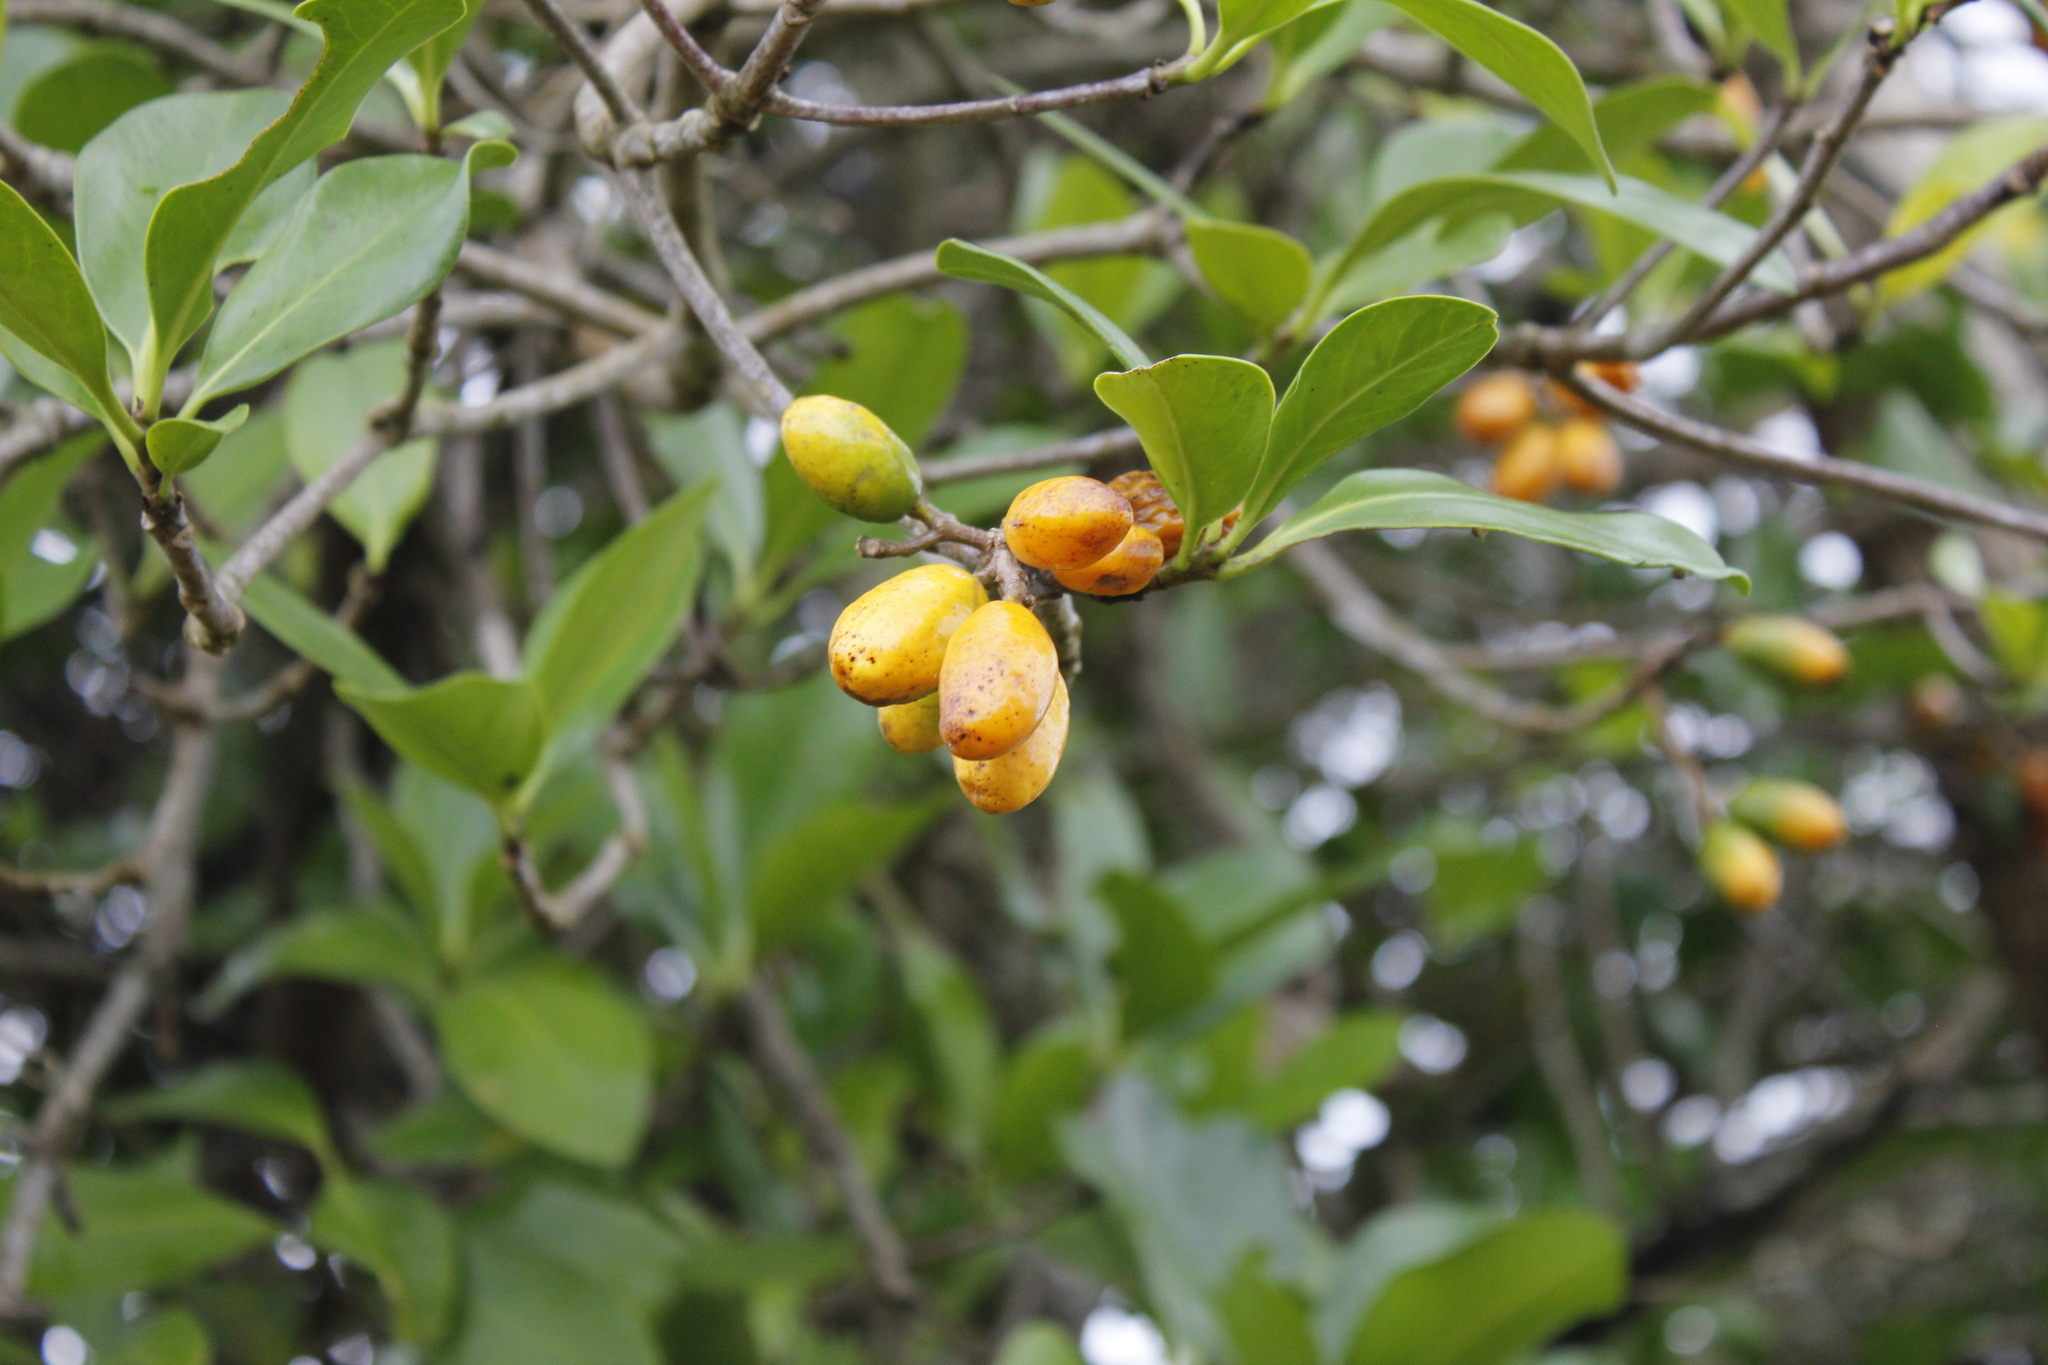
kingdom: Plantae
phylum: Tracheophyta
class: Magnoliopsida
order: Cucurbitales
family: Corynocarpaceae
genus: Corynocarpus
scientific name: Corynocarpus laevigatus
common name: New zealand laurel
